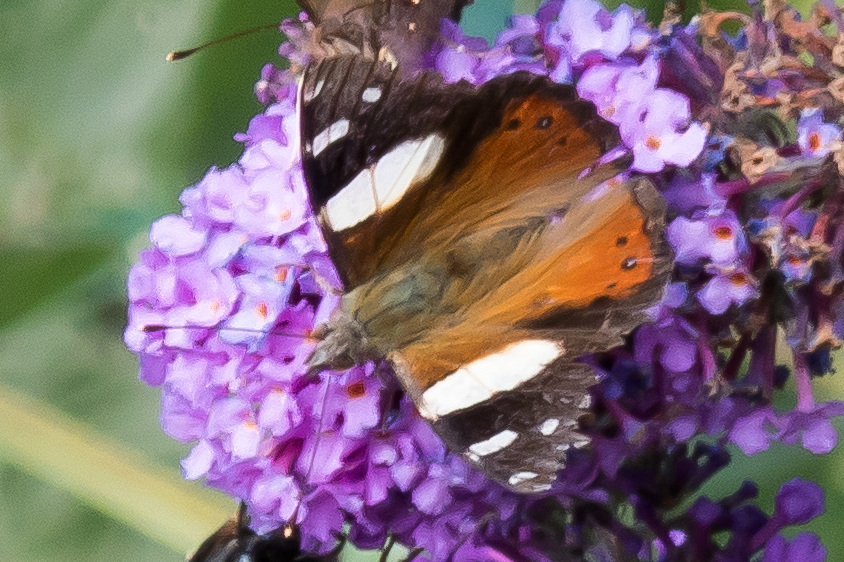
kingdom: Animalia
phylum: Arthropoda
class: Insecta
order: Lepidoptera
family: Nymphalidae
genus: Vanessa
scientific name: Vanessa itea
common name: Yellow admiral
